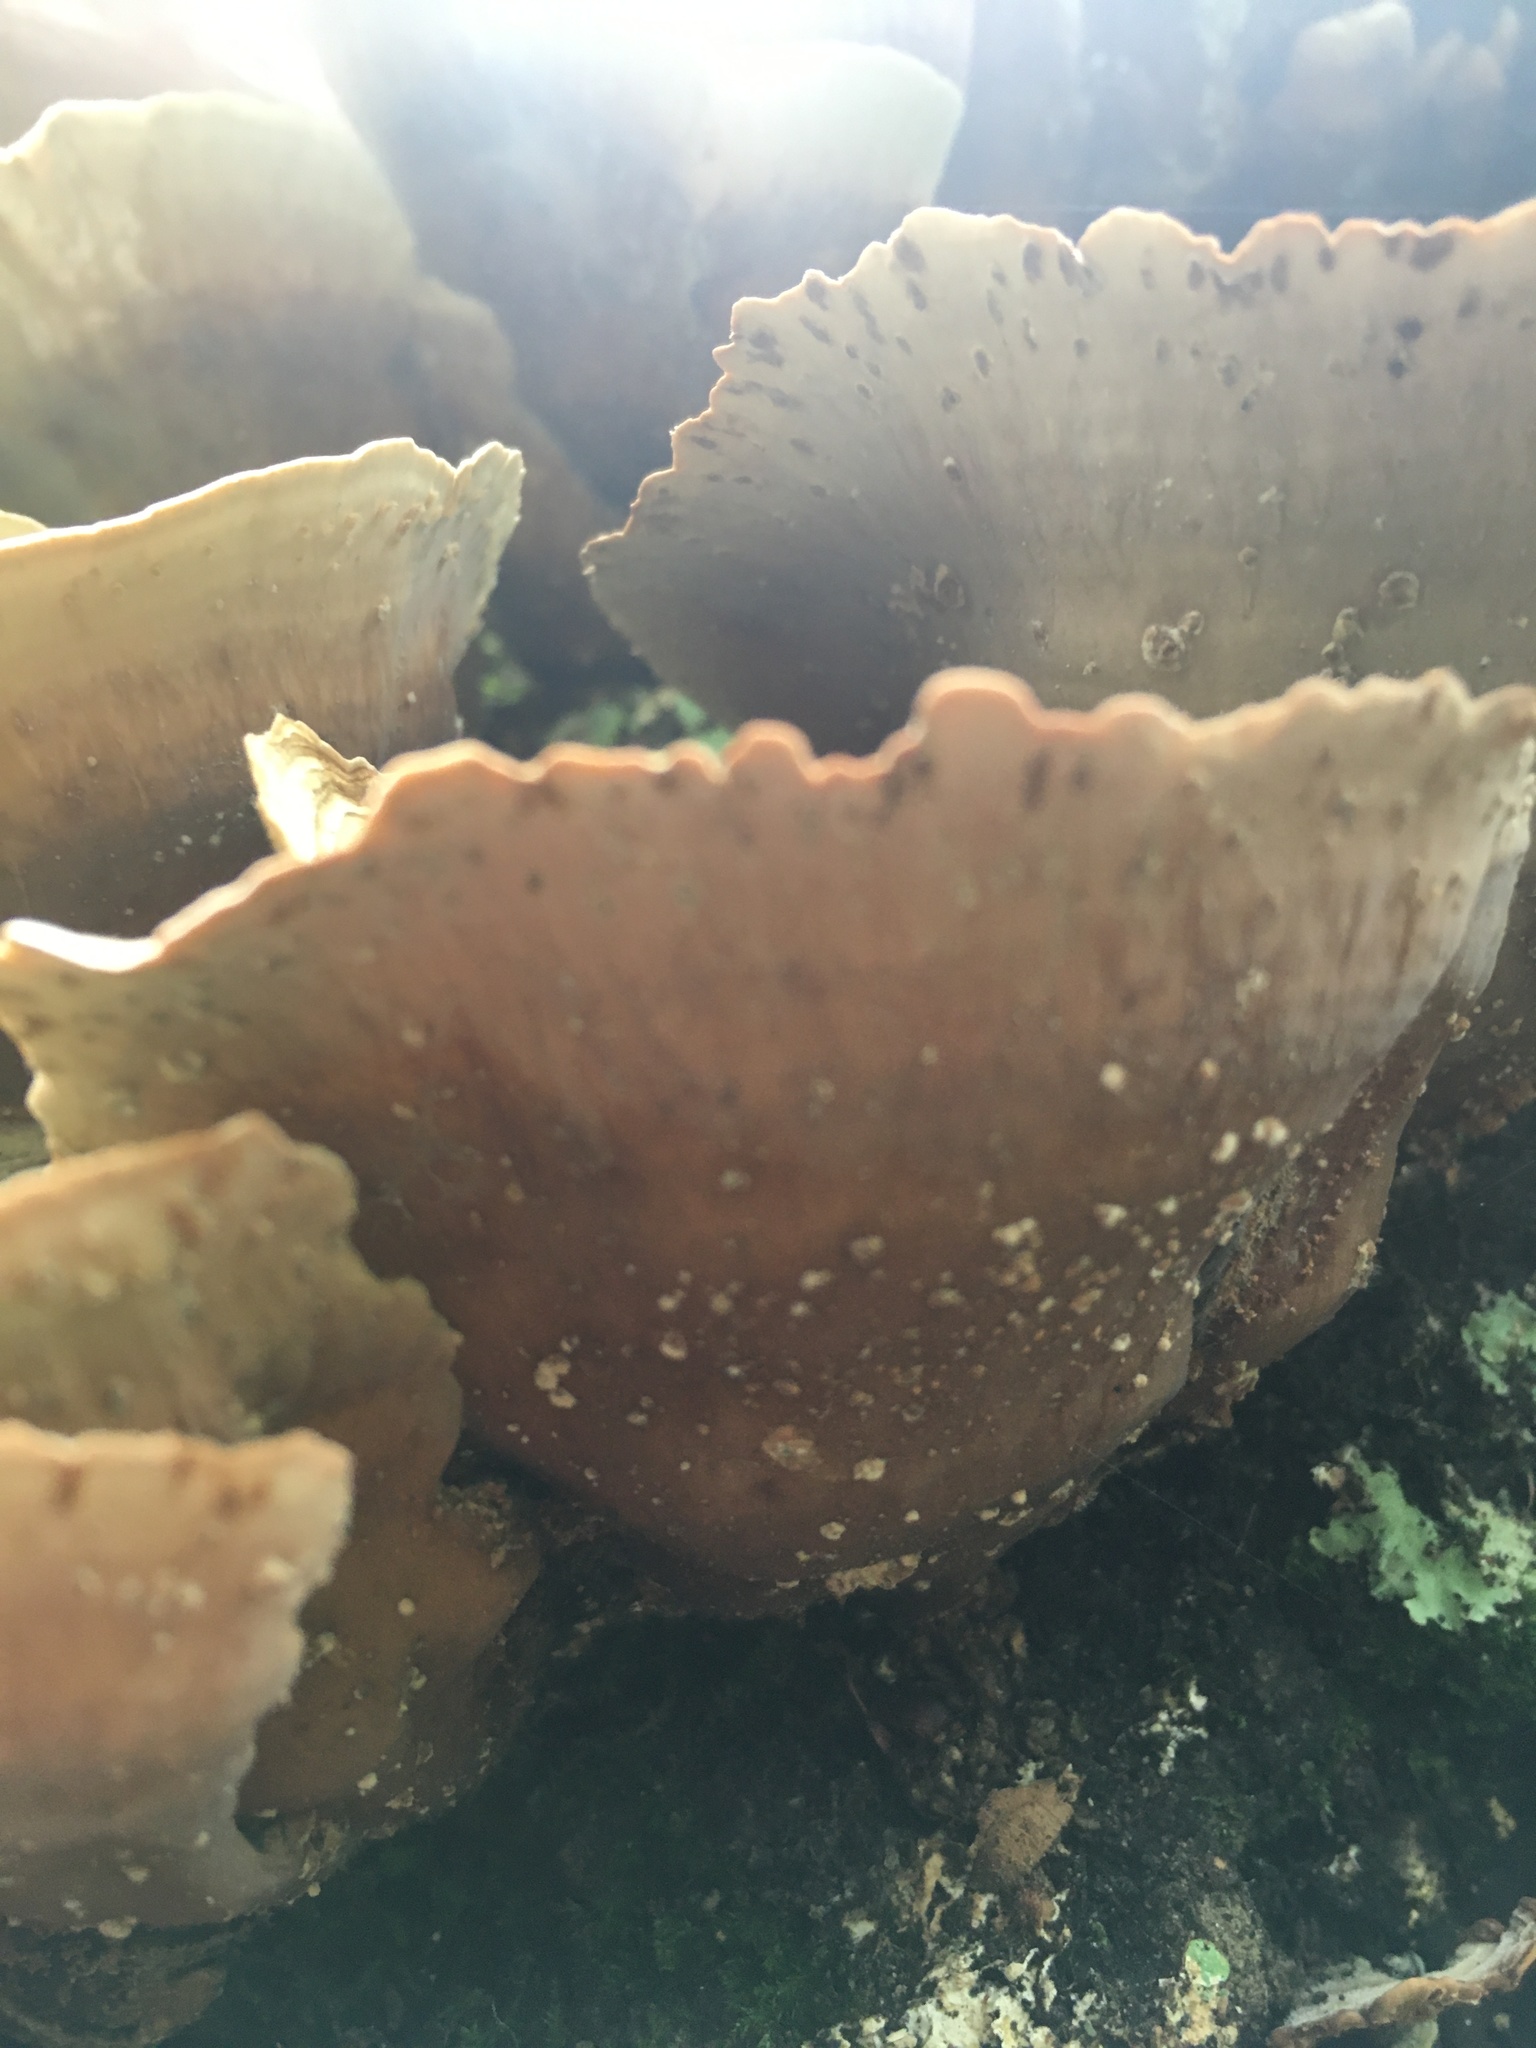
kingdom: Fungi
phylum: Basidiomycota
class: Agaricomycetes
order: Russulales
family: Stereaceae
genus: Stereum
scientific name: Stereum ostrea
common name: False turkeytail
